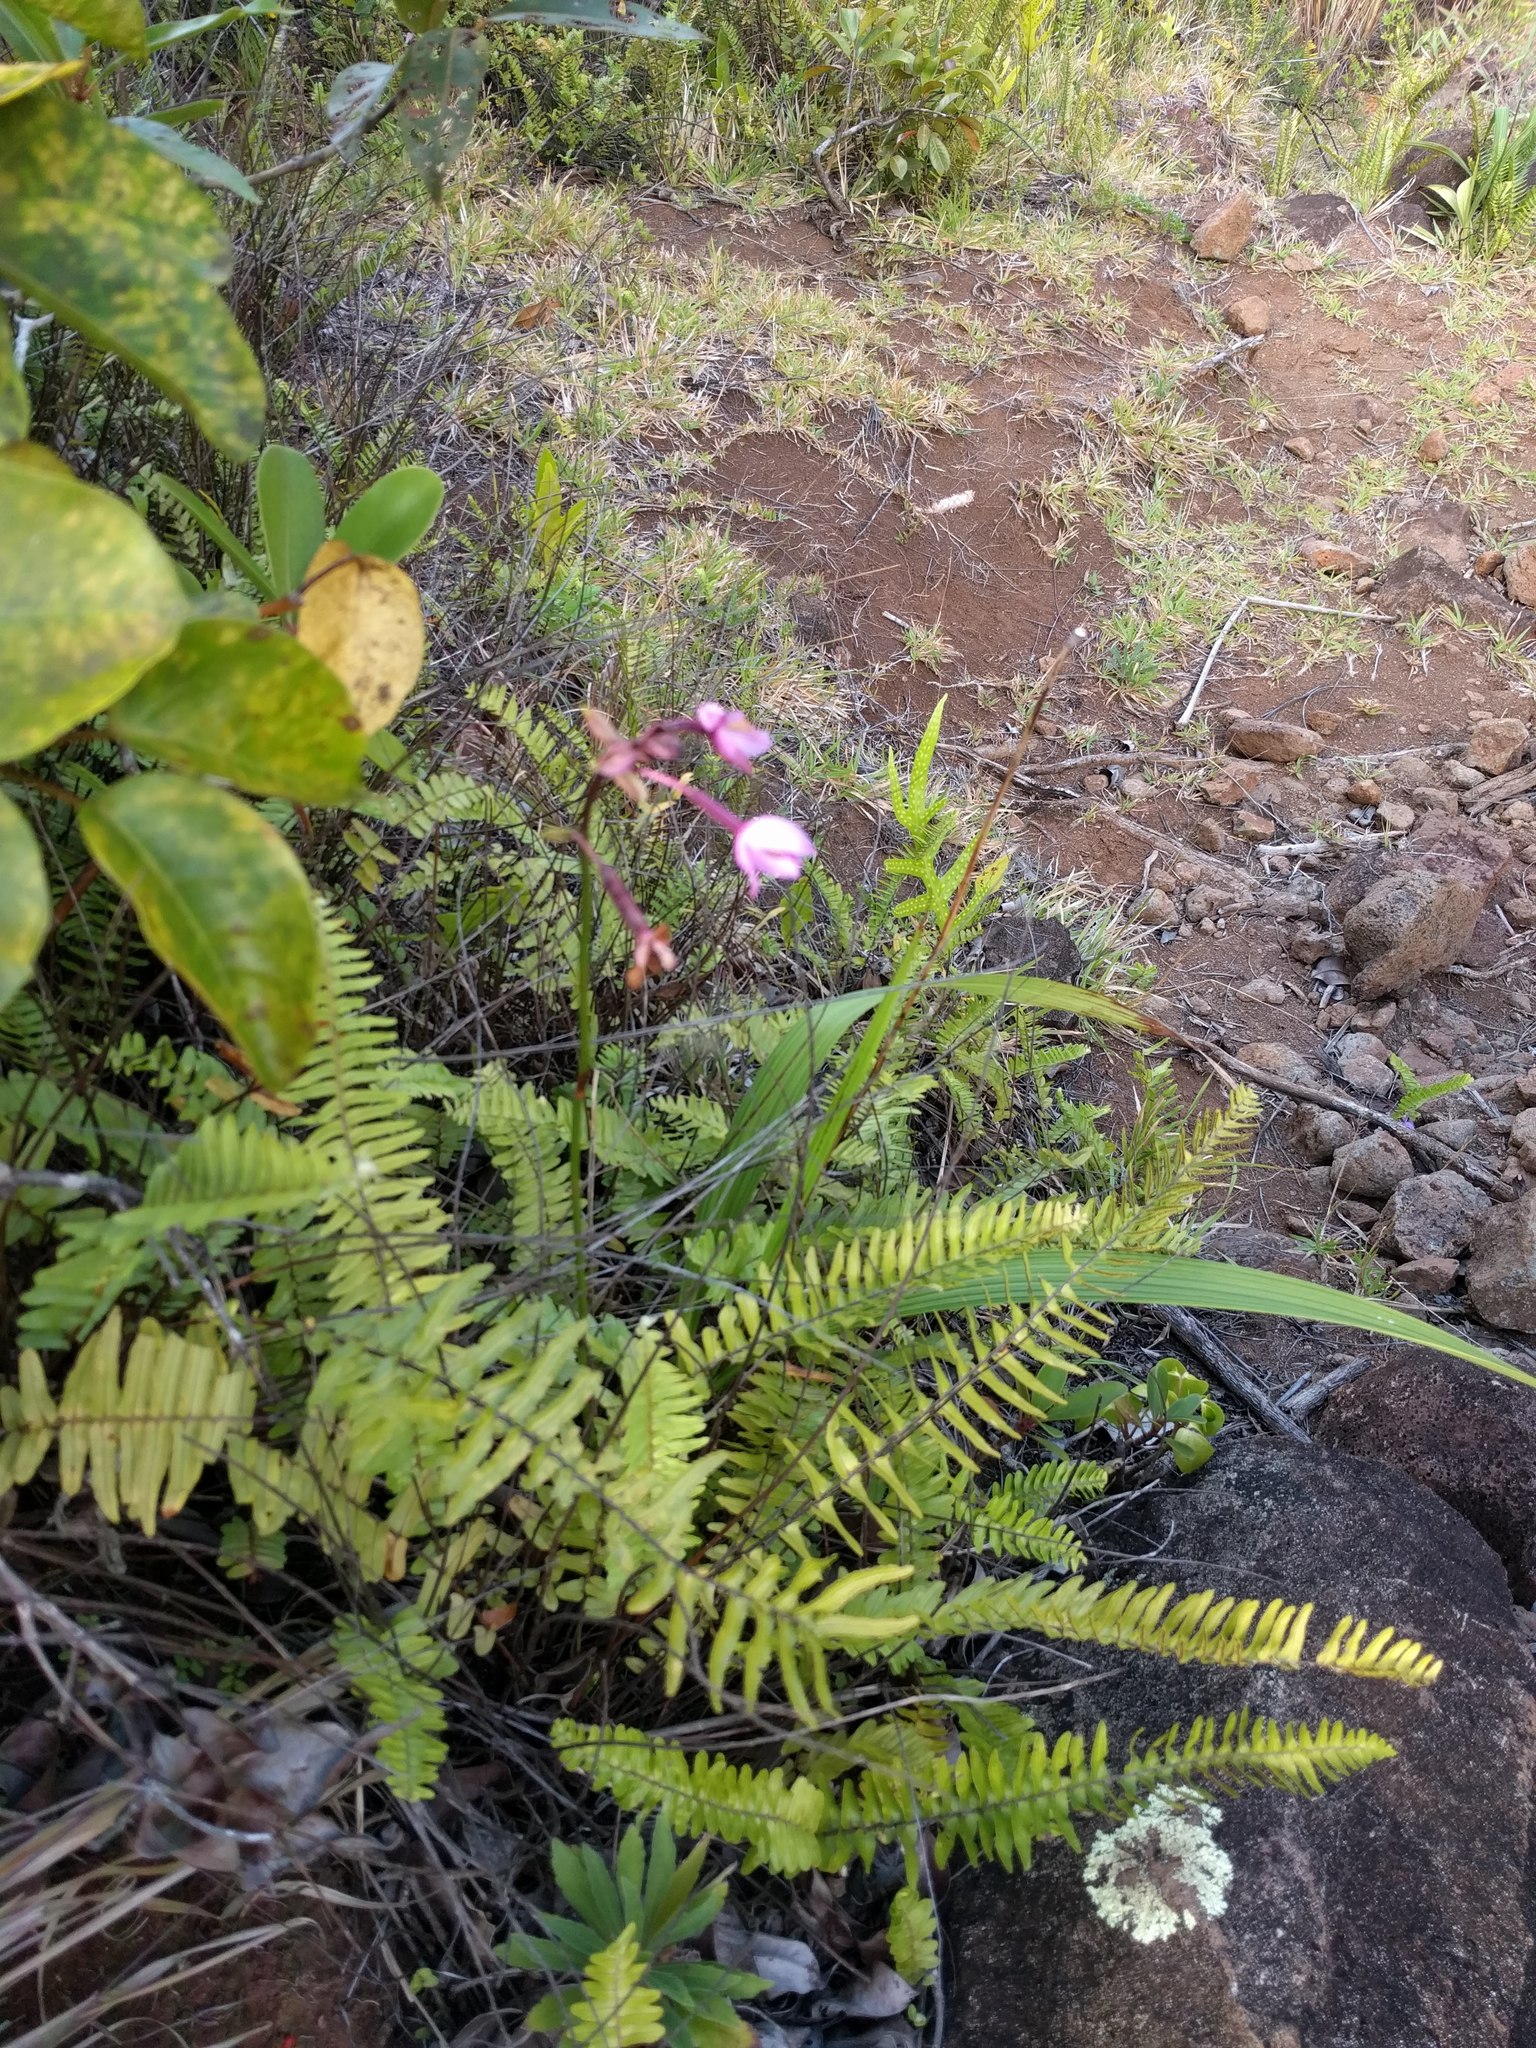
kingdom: Plantae
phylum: Tracheophyta
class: Polypodiopsida
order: Polypodiales
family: Pteridaceae
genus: Pityrogramma
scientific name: Pityrogramma austroamericana
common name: Leatherleaf goldback fern
